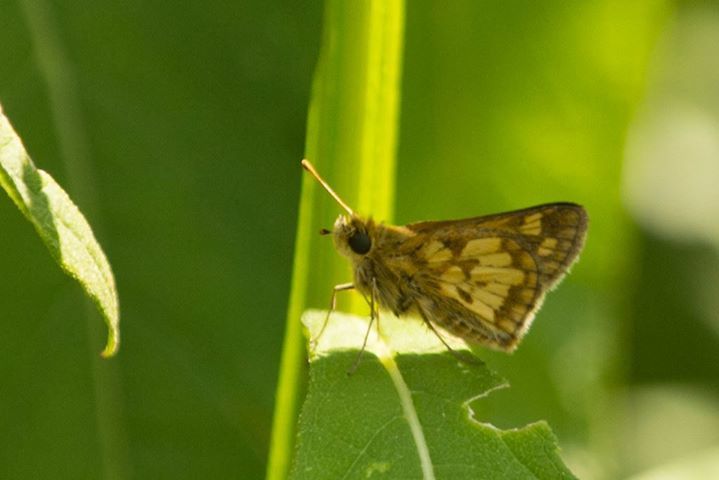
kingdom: Animalia
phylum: Arthropoda
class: Insecta
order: Lepidoptera
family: Hesperiidae
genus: Polites
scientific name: Polites coras
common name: Peck's skipper
